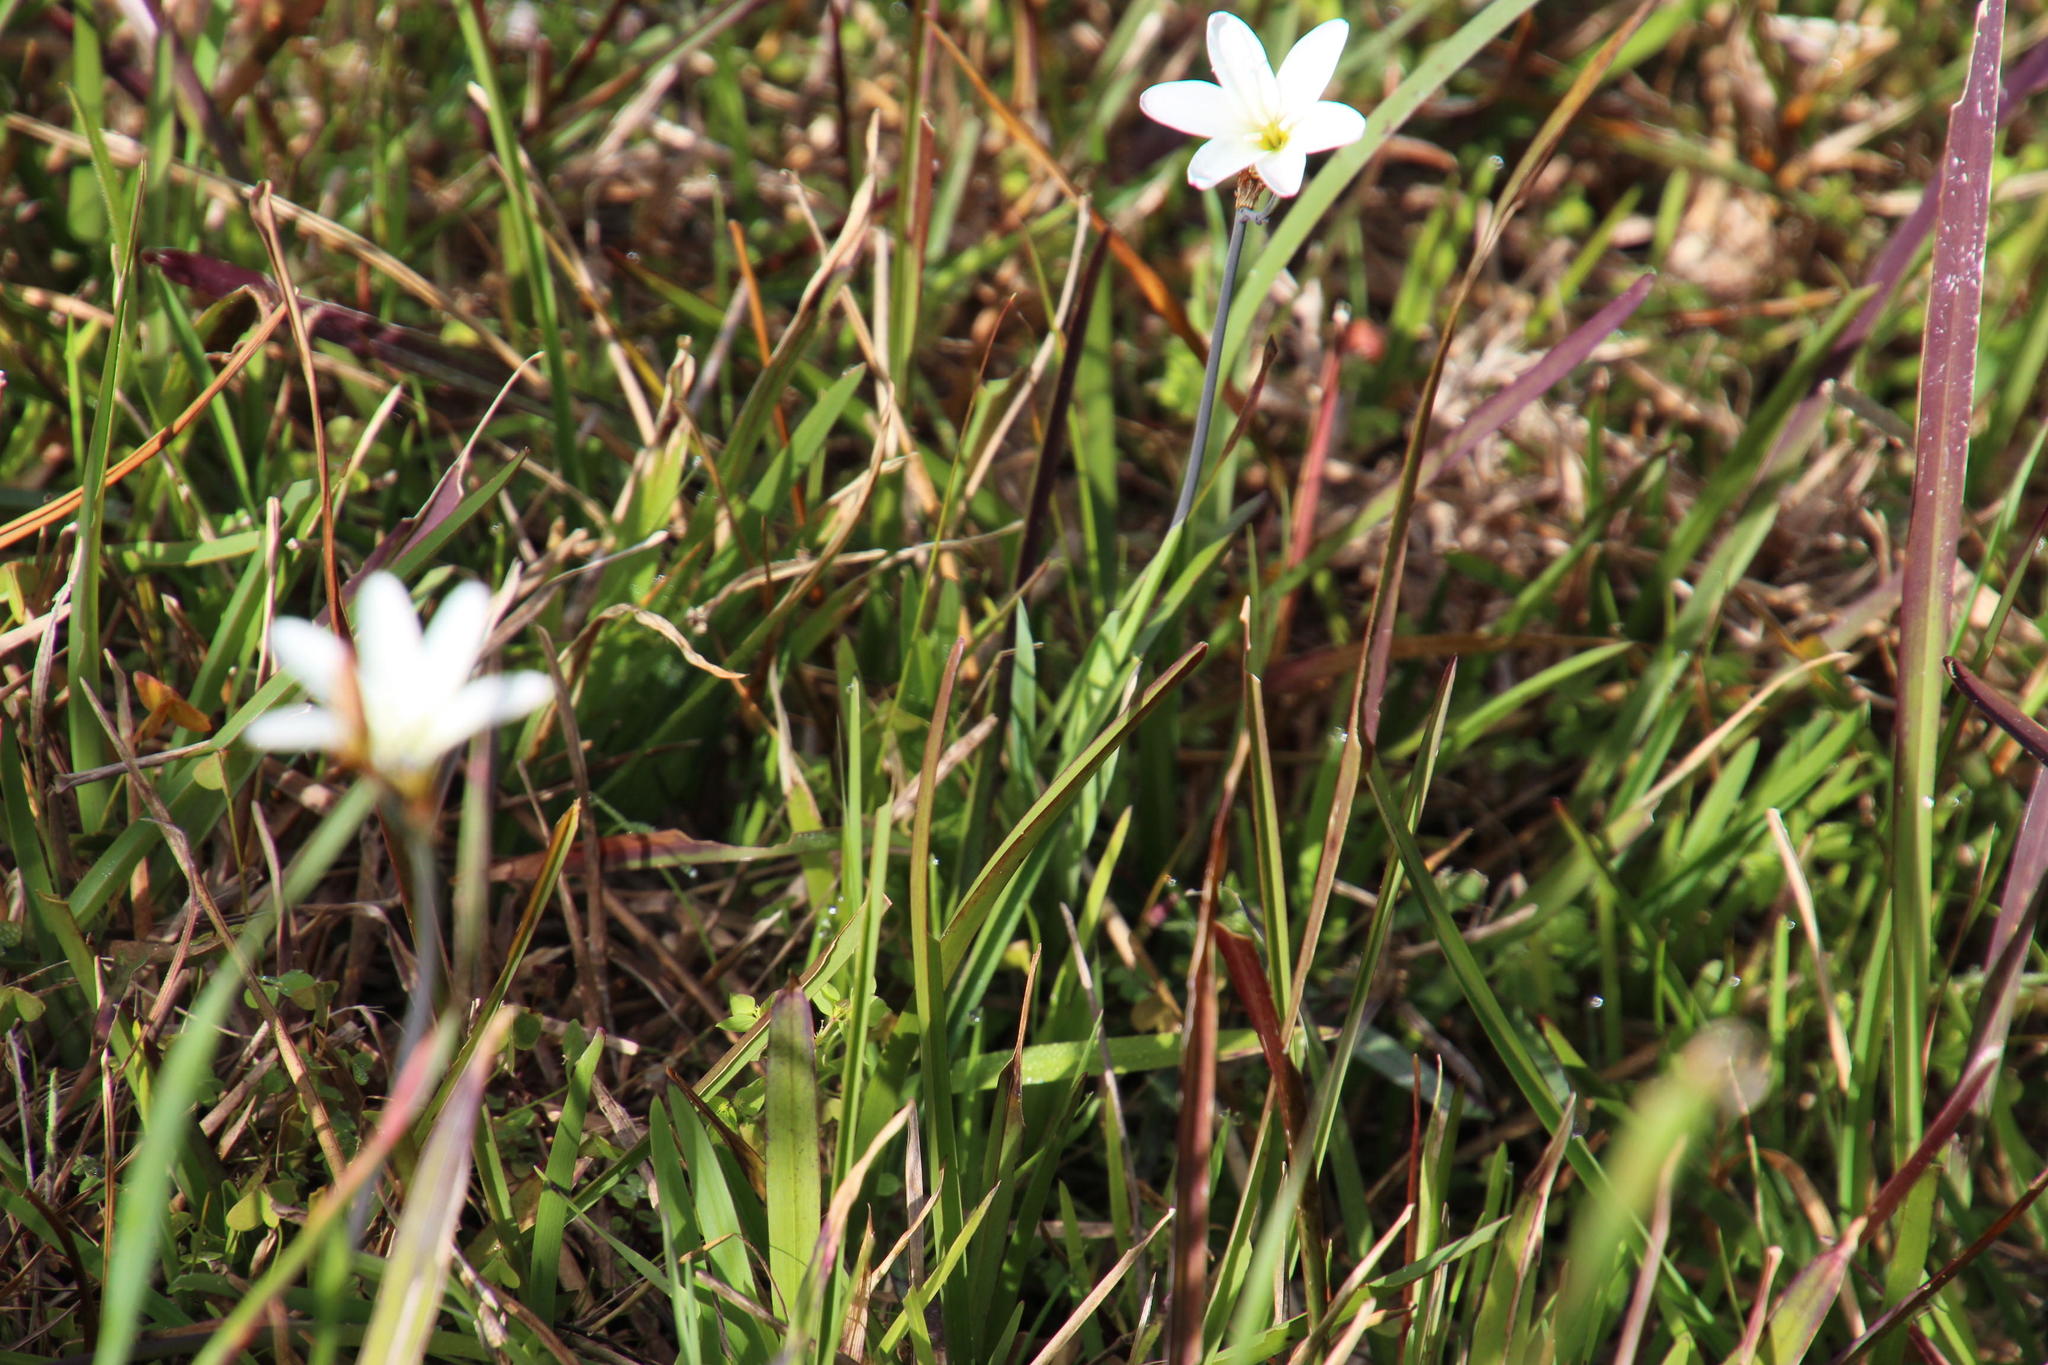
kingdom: Plantae
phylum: Tracheophyta
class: Liliopsida
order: Asparagales
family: Iridaceae
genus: Sparaxis
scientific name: Sparaxis bulbifera
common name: Harlequin-flower
